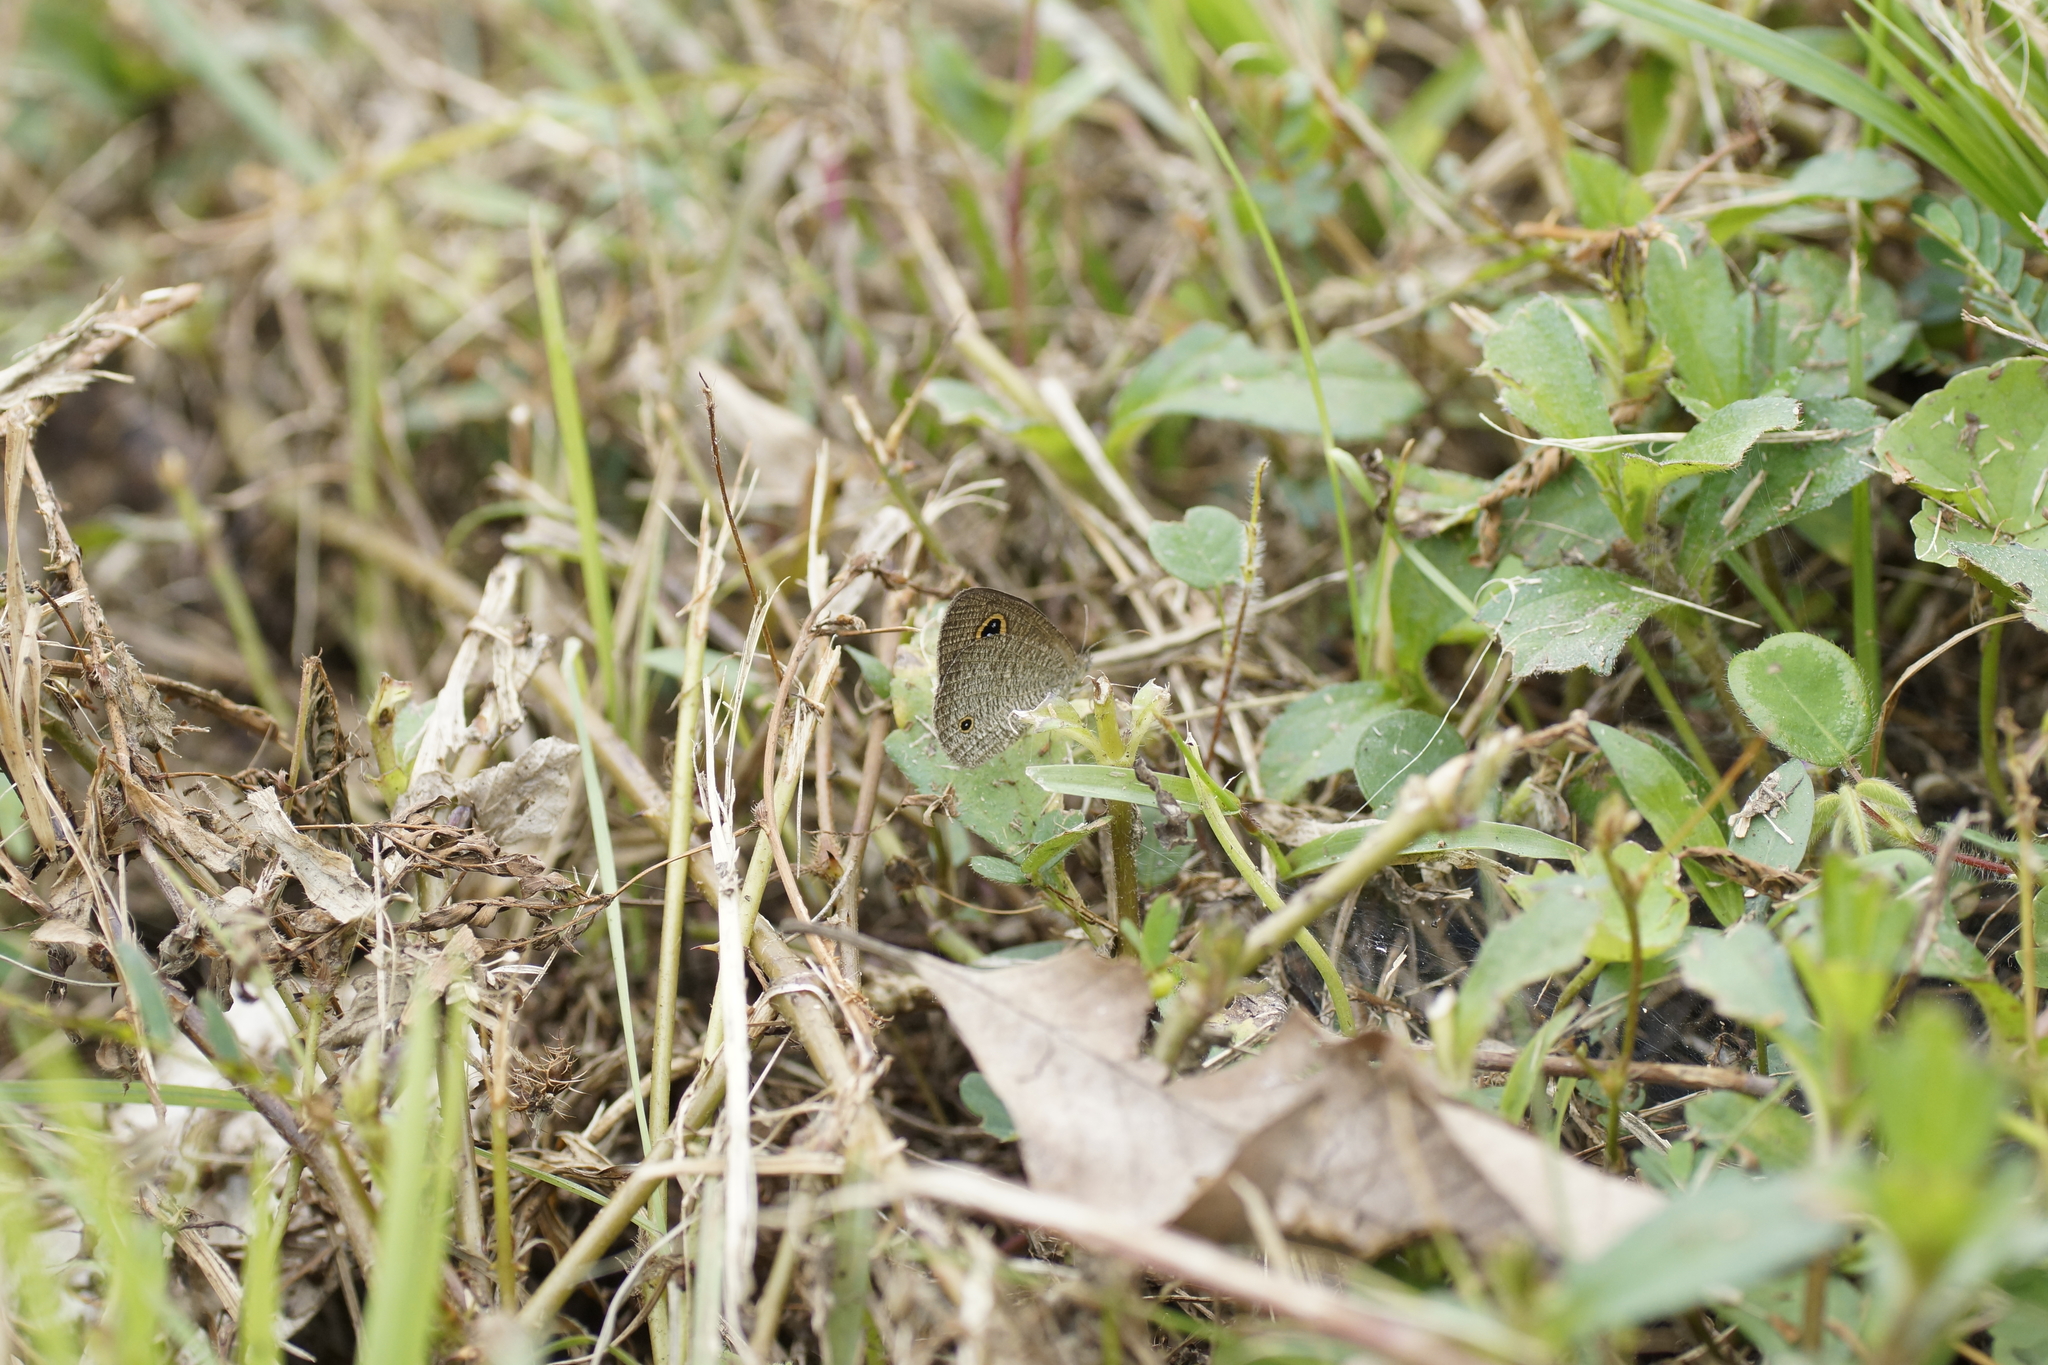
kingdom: Animalia
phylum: Arthropoda
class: Insecta
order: Lepidoptera
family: Nymphalidae
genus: Ypthima
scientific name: Ypthima arctous
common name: Dusky knight
